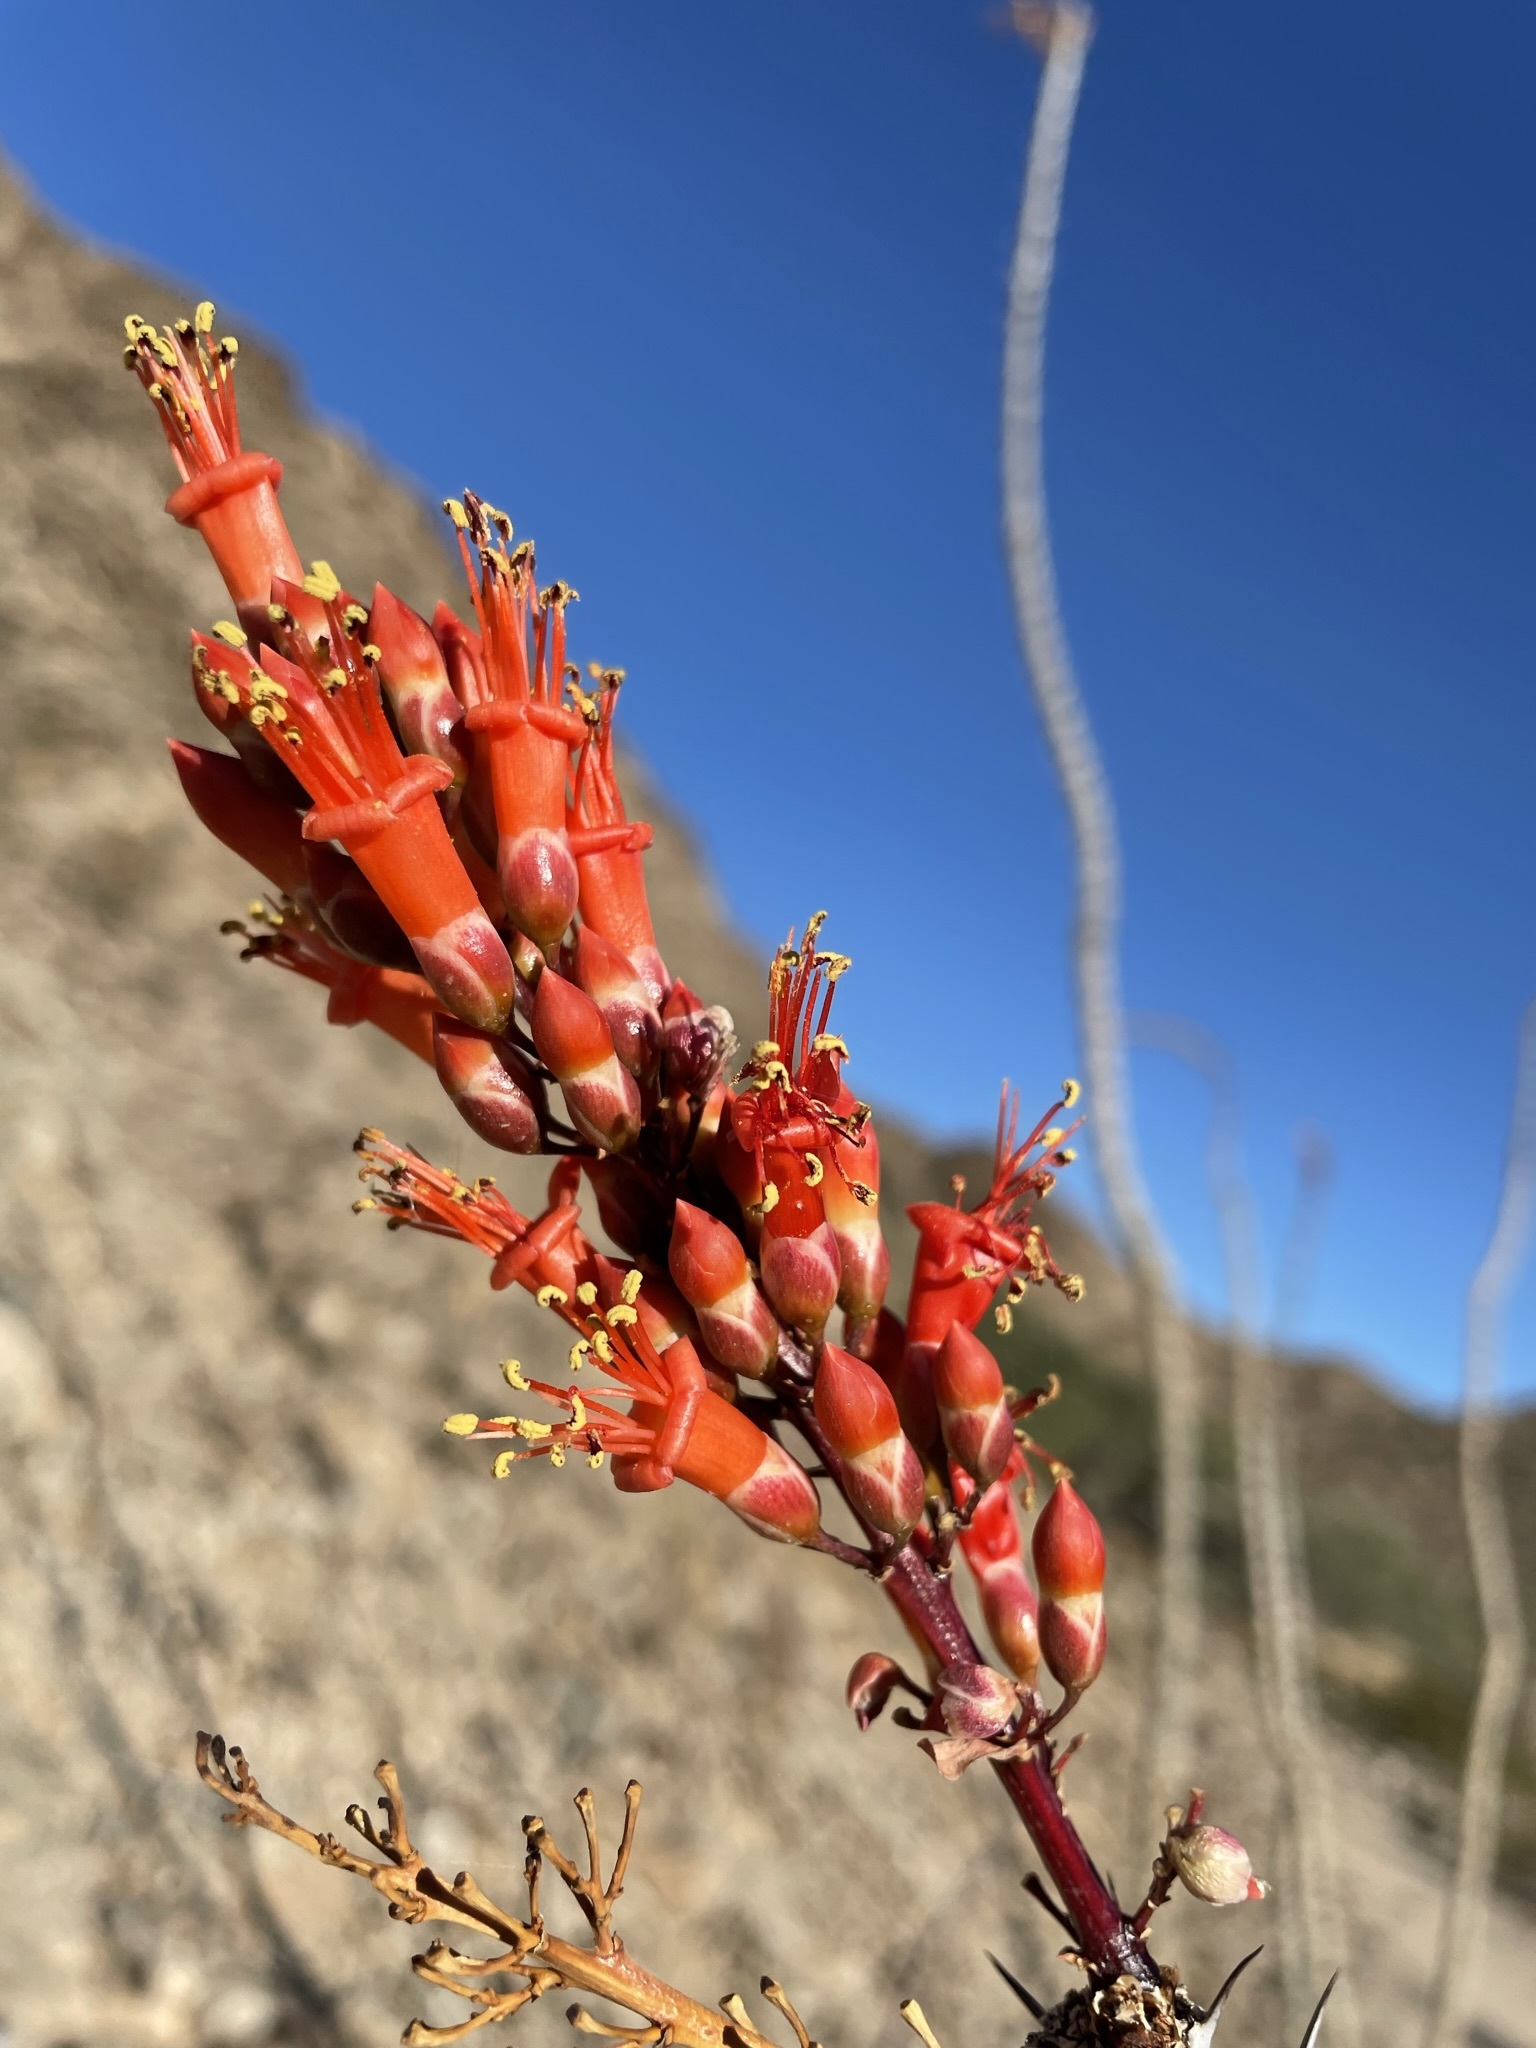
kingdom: Plantae
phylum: Tracheophyta
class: Magnoliopsida
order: Ericales
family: Fouquieriaceae
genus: Fouquieria
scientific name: Fouquieria splendens
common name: Vine-cactus
